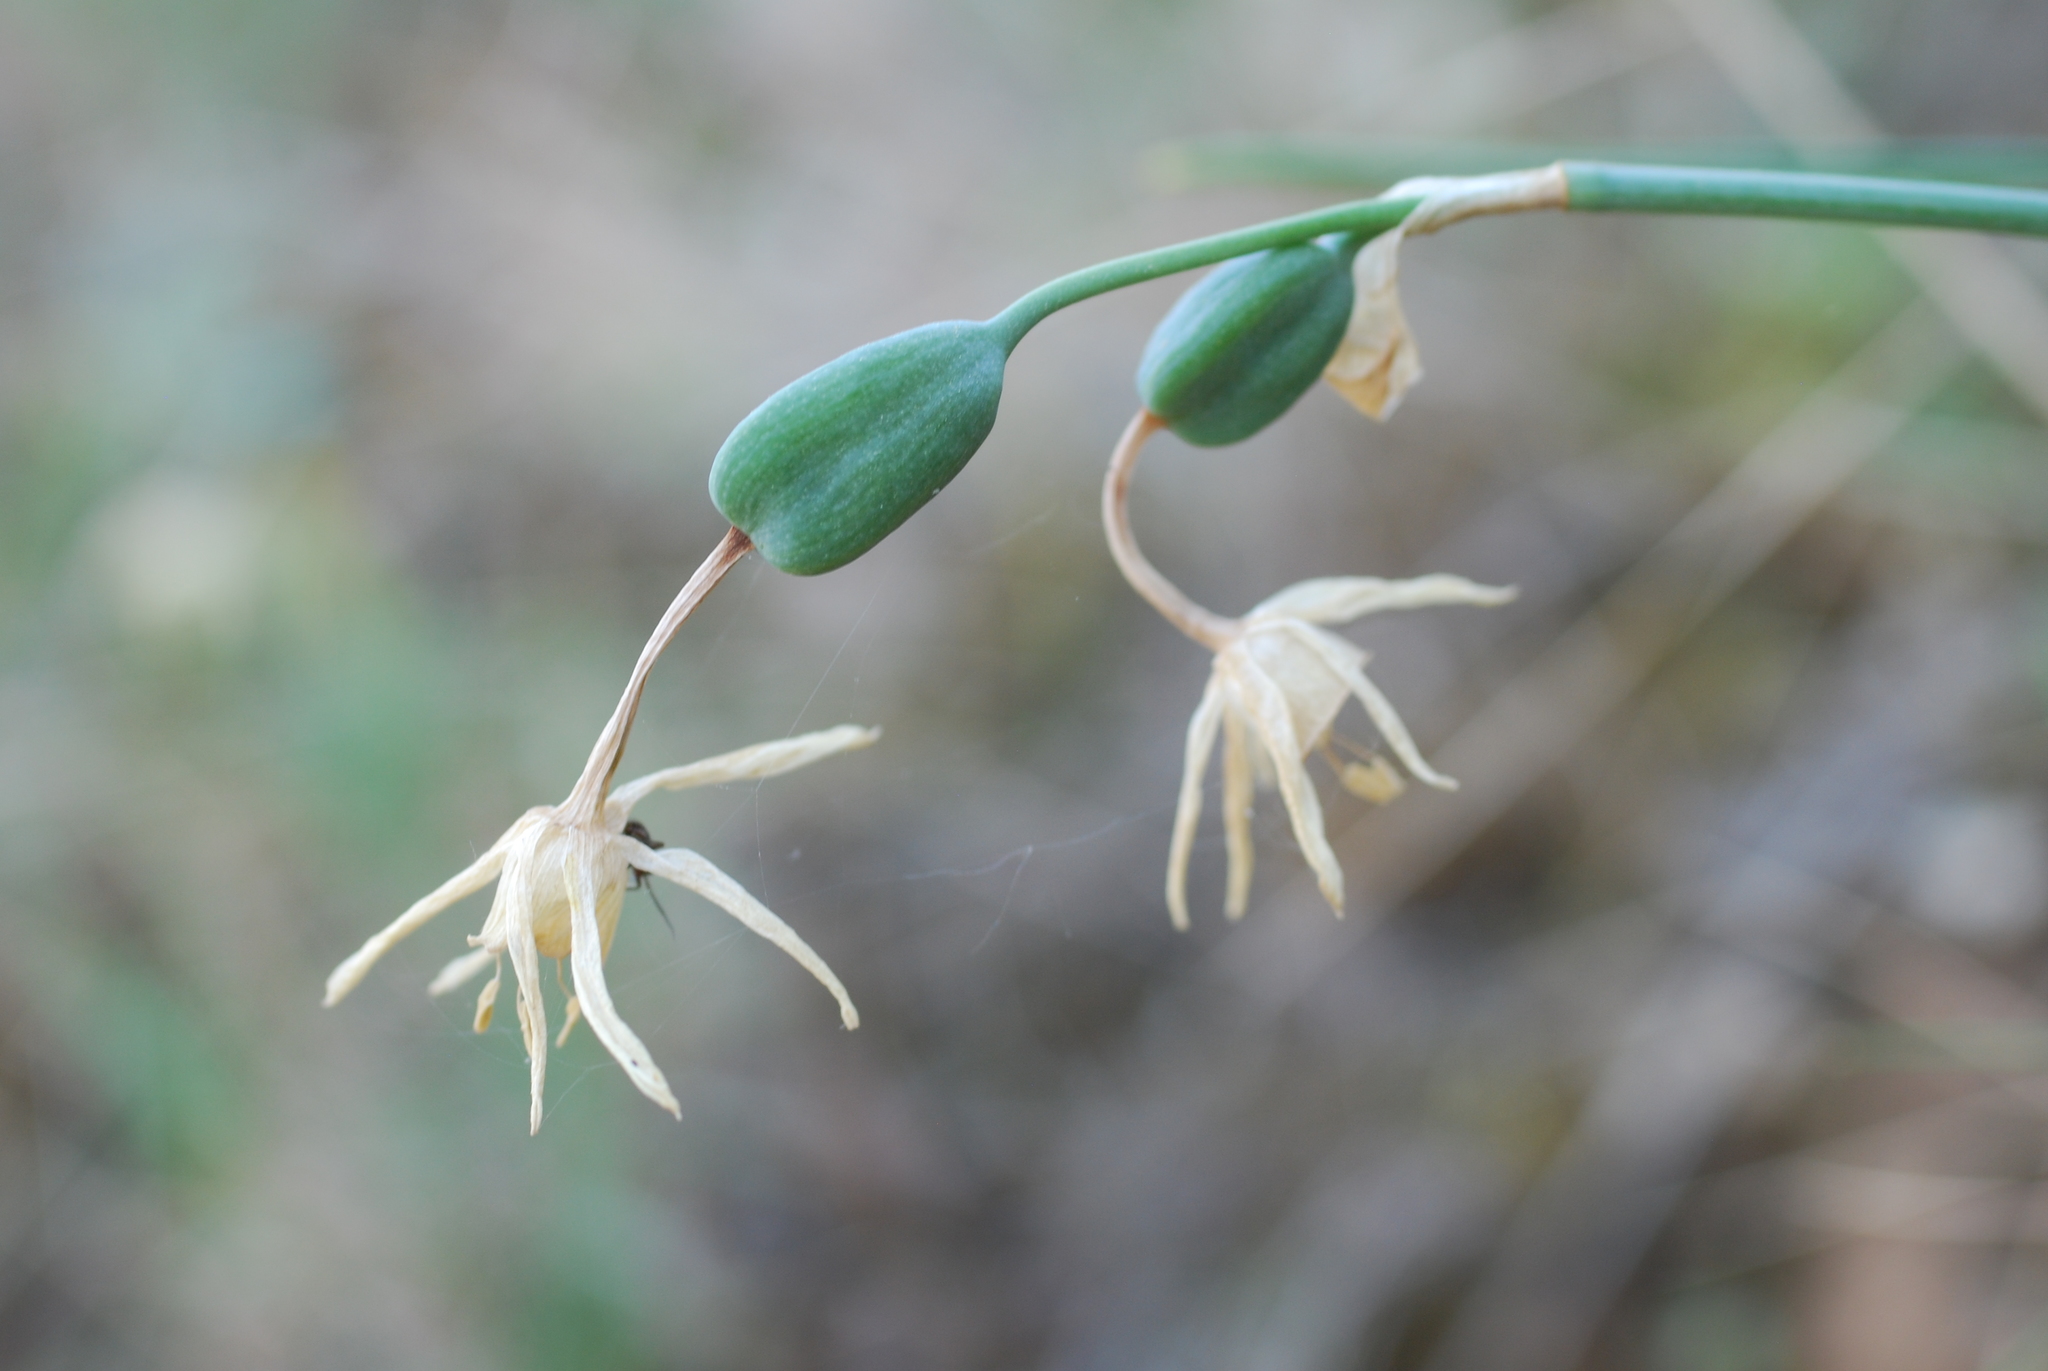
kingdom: Plantae
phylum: Tracheophyta
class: Liliopsida
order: Asparagales
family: Amaryllidaceae
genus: Narcissus
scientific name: Narcissus papyraceus
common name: Paper-white daffodil
